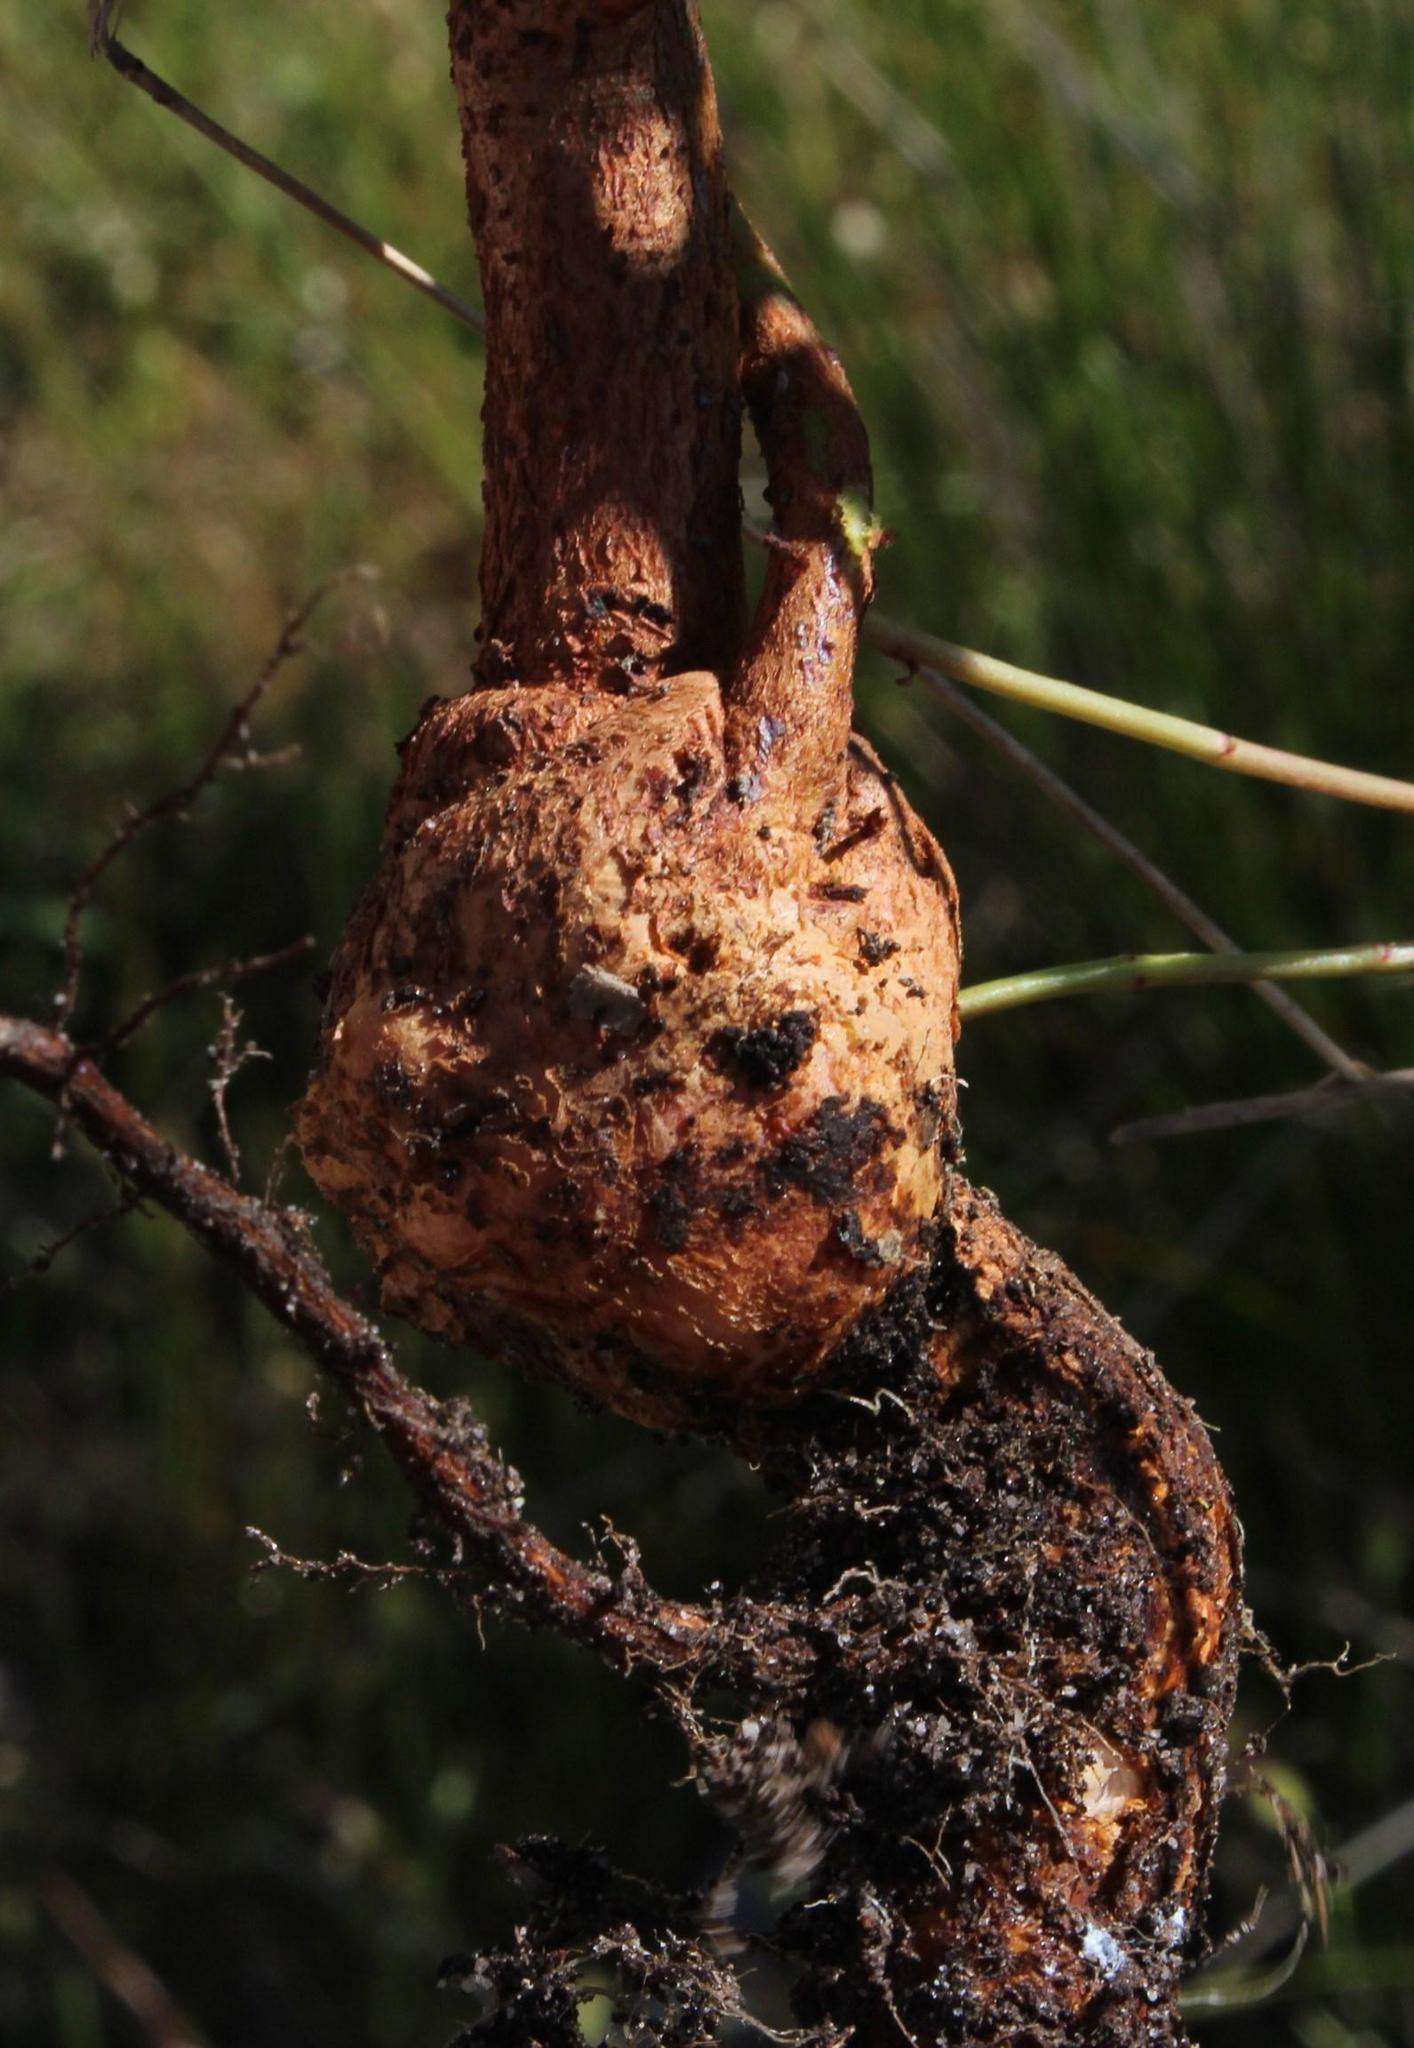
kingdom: Plantae
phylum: Tracheophyta
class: Magnoliopsida
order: Myrtales
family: Myrtaceae
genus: Eucalyptus
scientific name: Eucalyptus botryoides
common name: Bangalay
